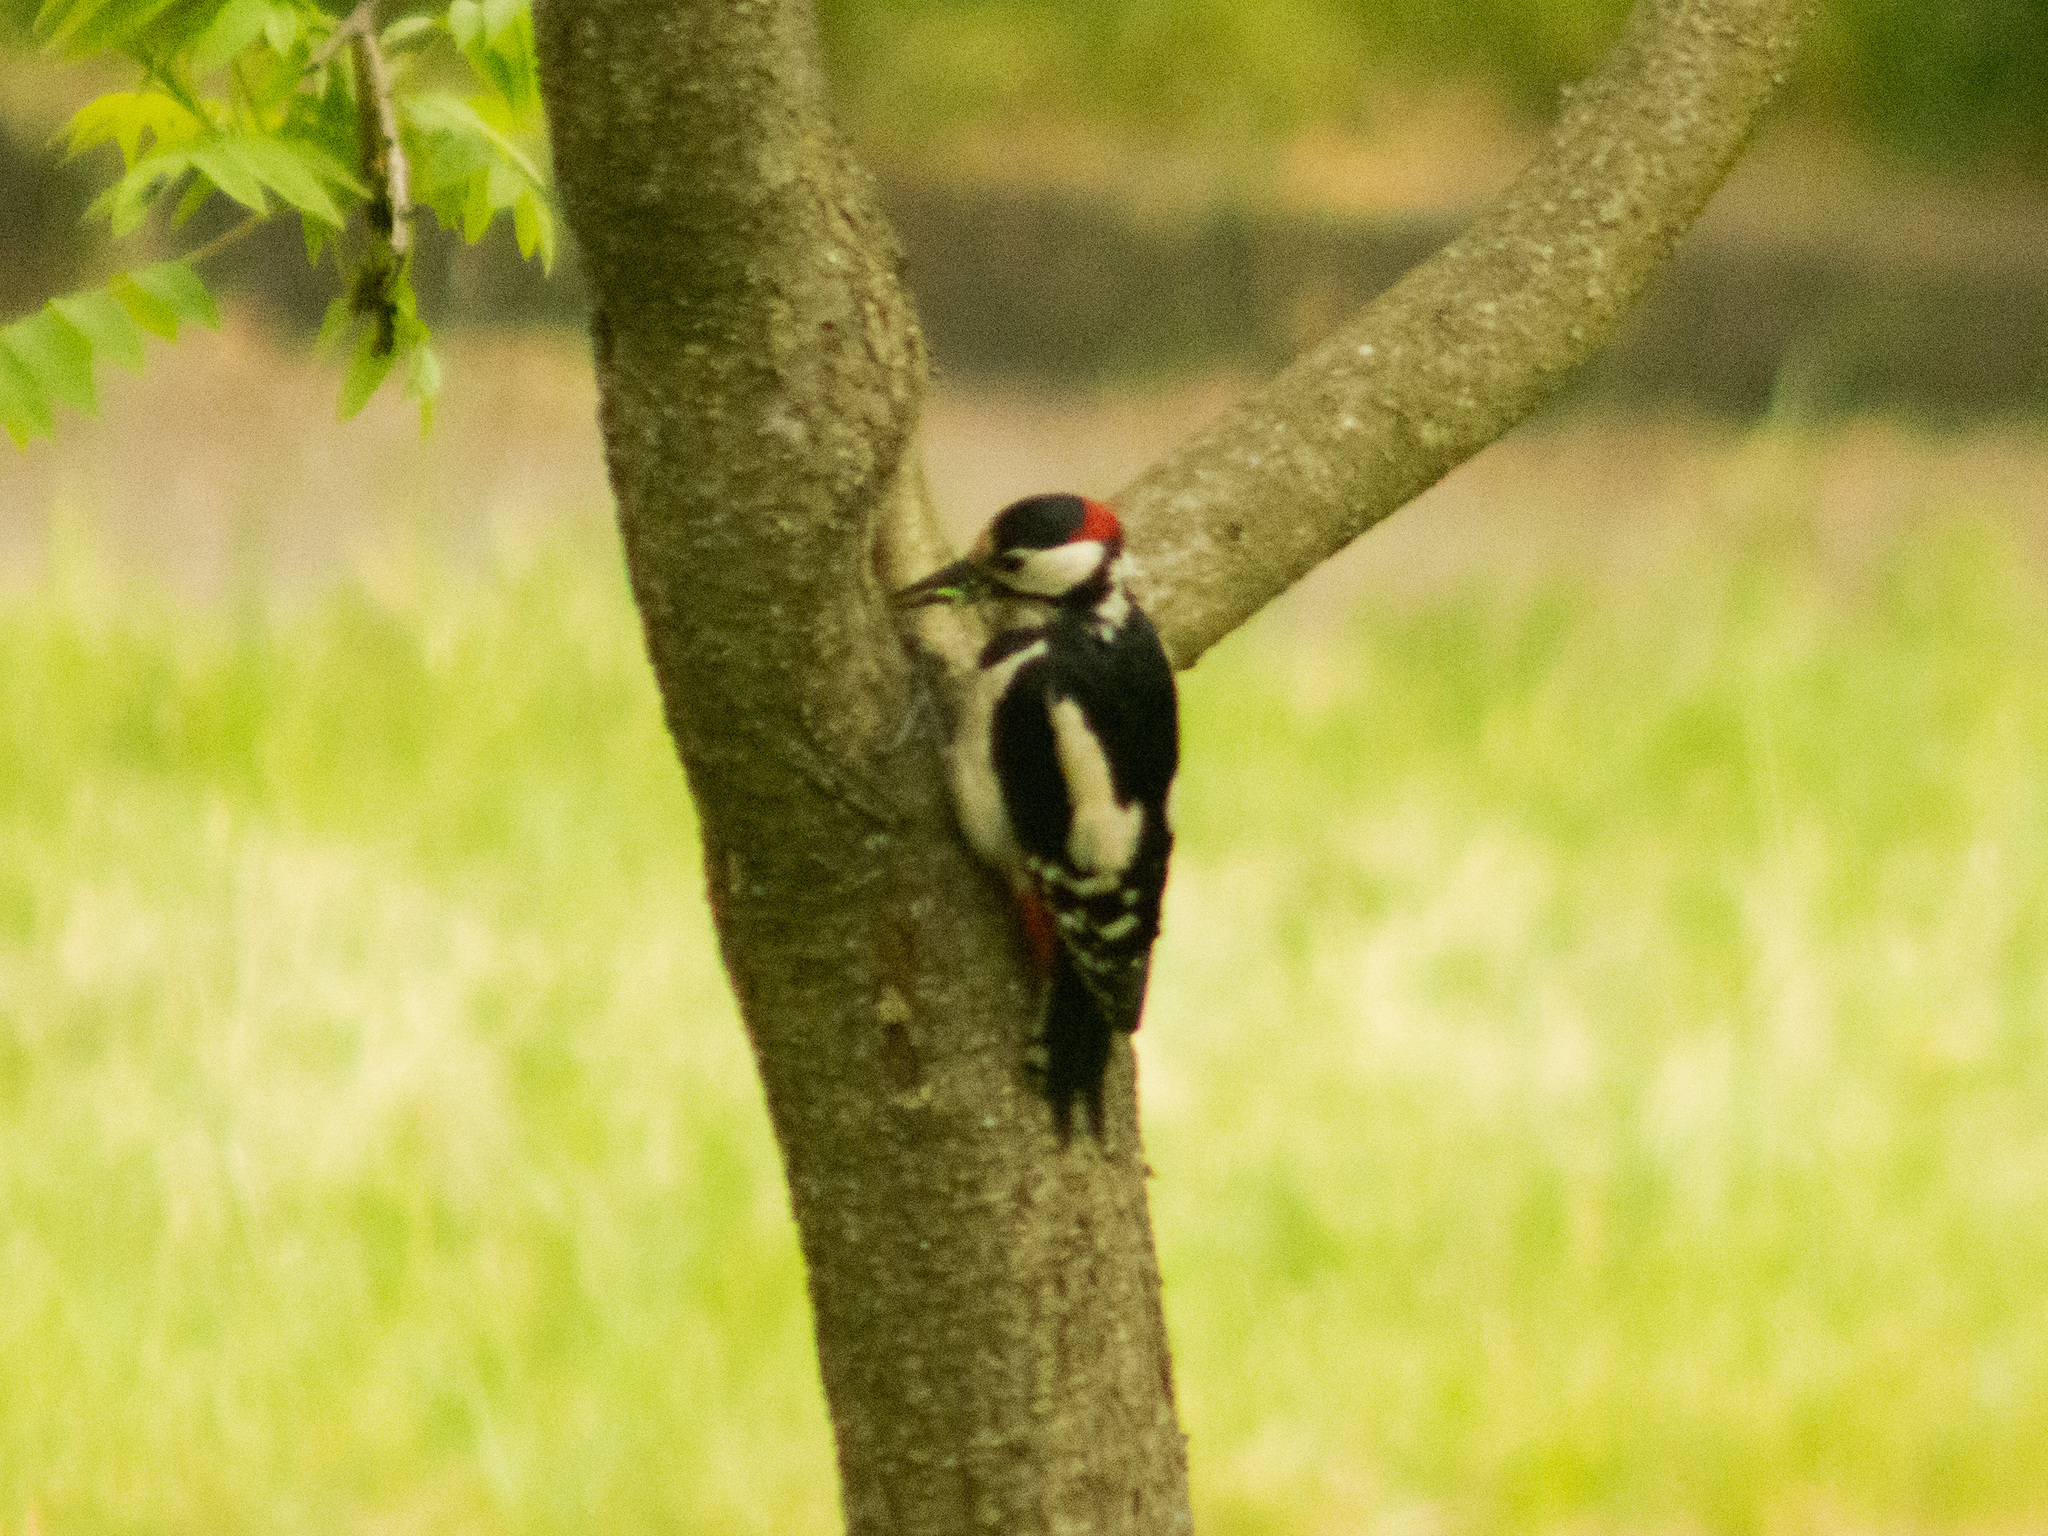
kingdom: Animalia
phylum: Chordata
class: Aves
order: Piciformes
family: Picidae
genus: Dendrocopos
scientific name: Dendrocopos major
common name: Great spotted woodpecker
